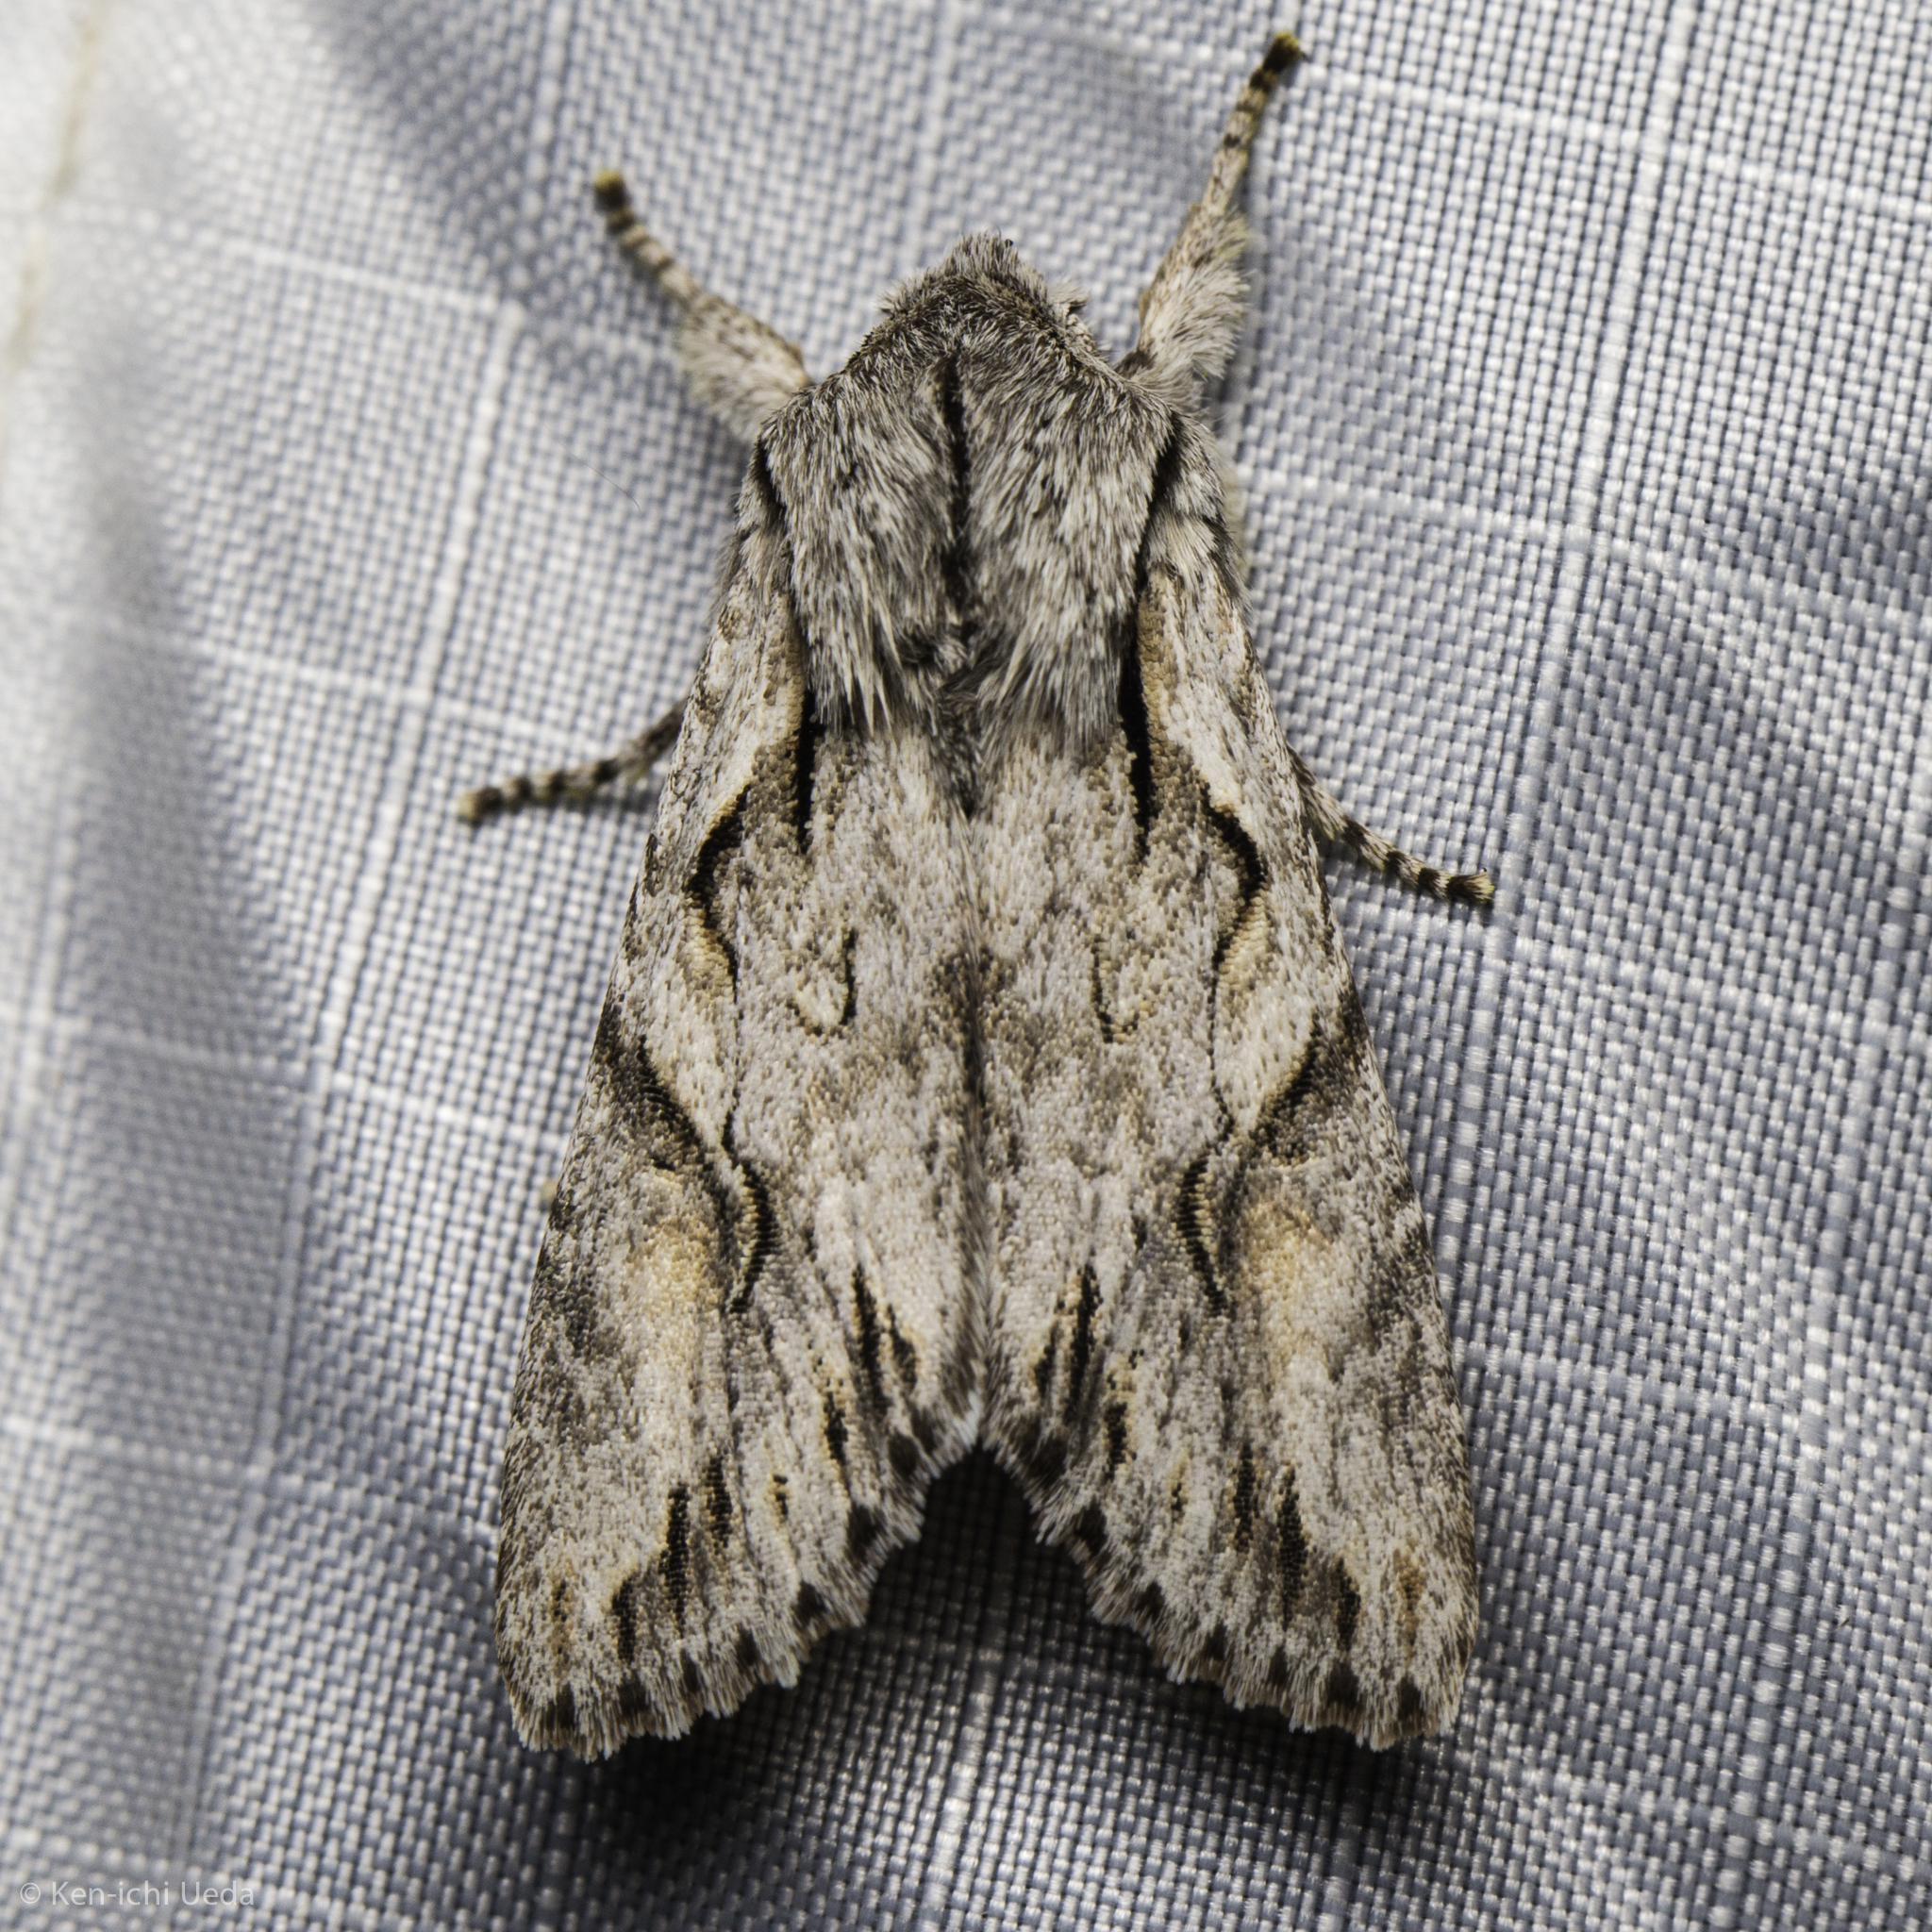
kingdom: Animalia
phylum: Arthropoda
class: Insecta
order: Lepidoptera
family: Noctuidae
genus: Egira
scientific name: Egira crucialis
